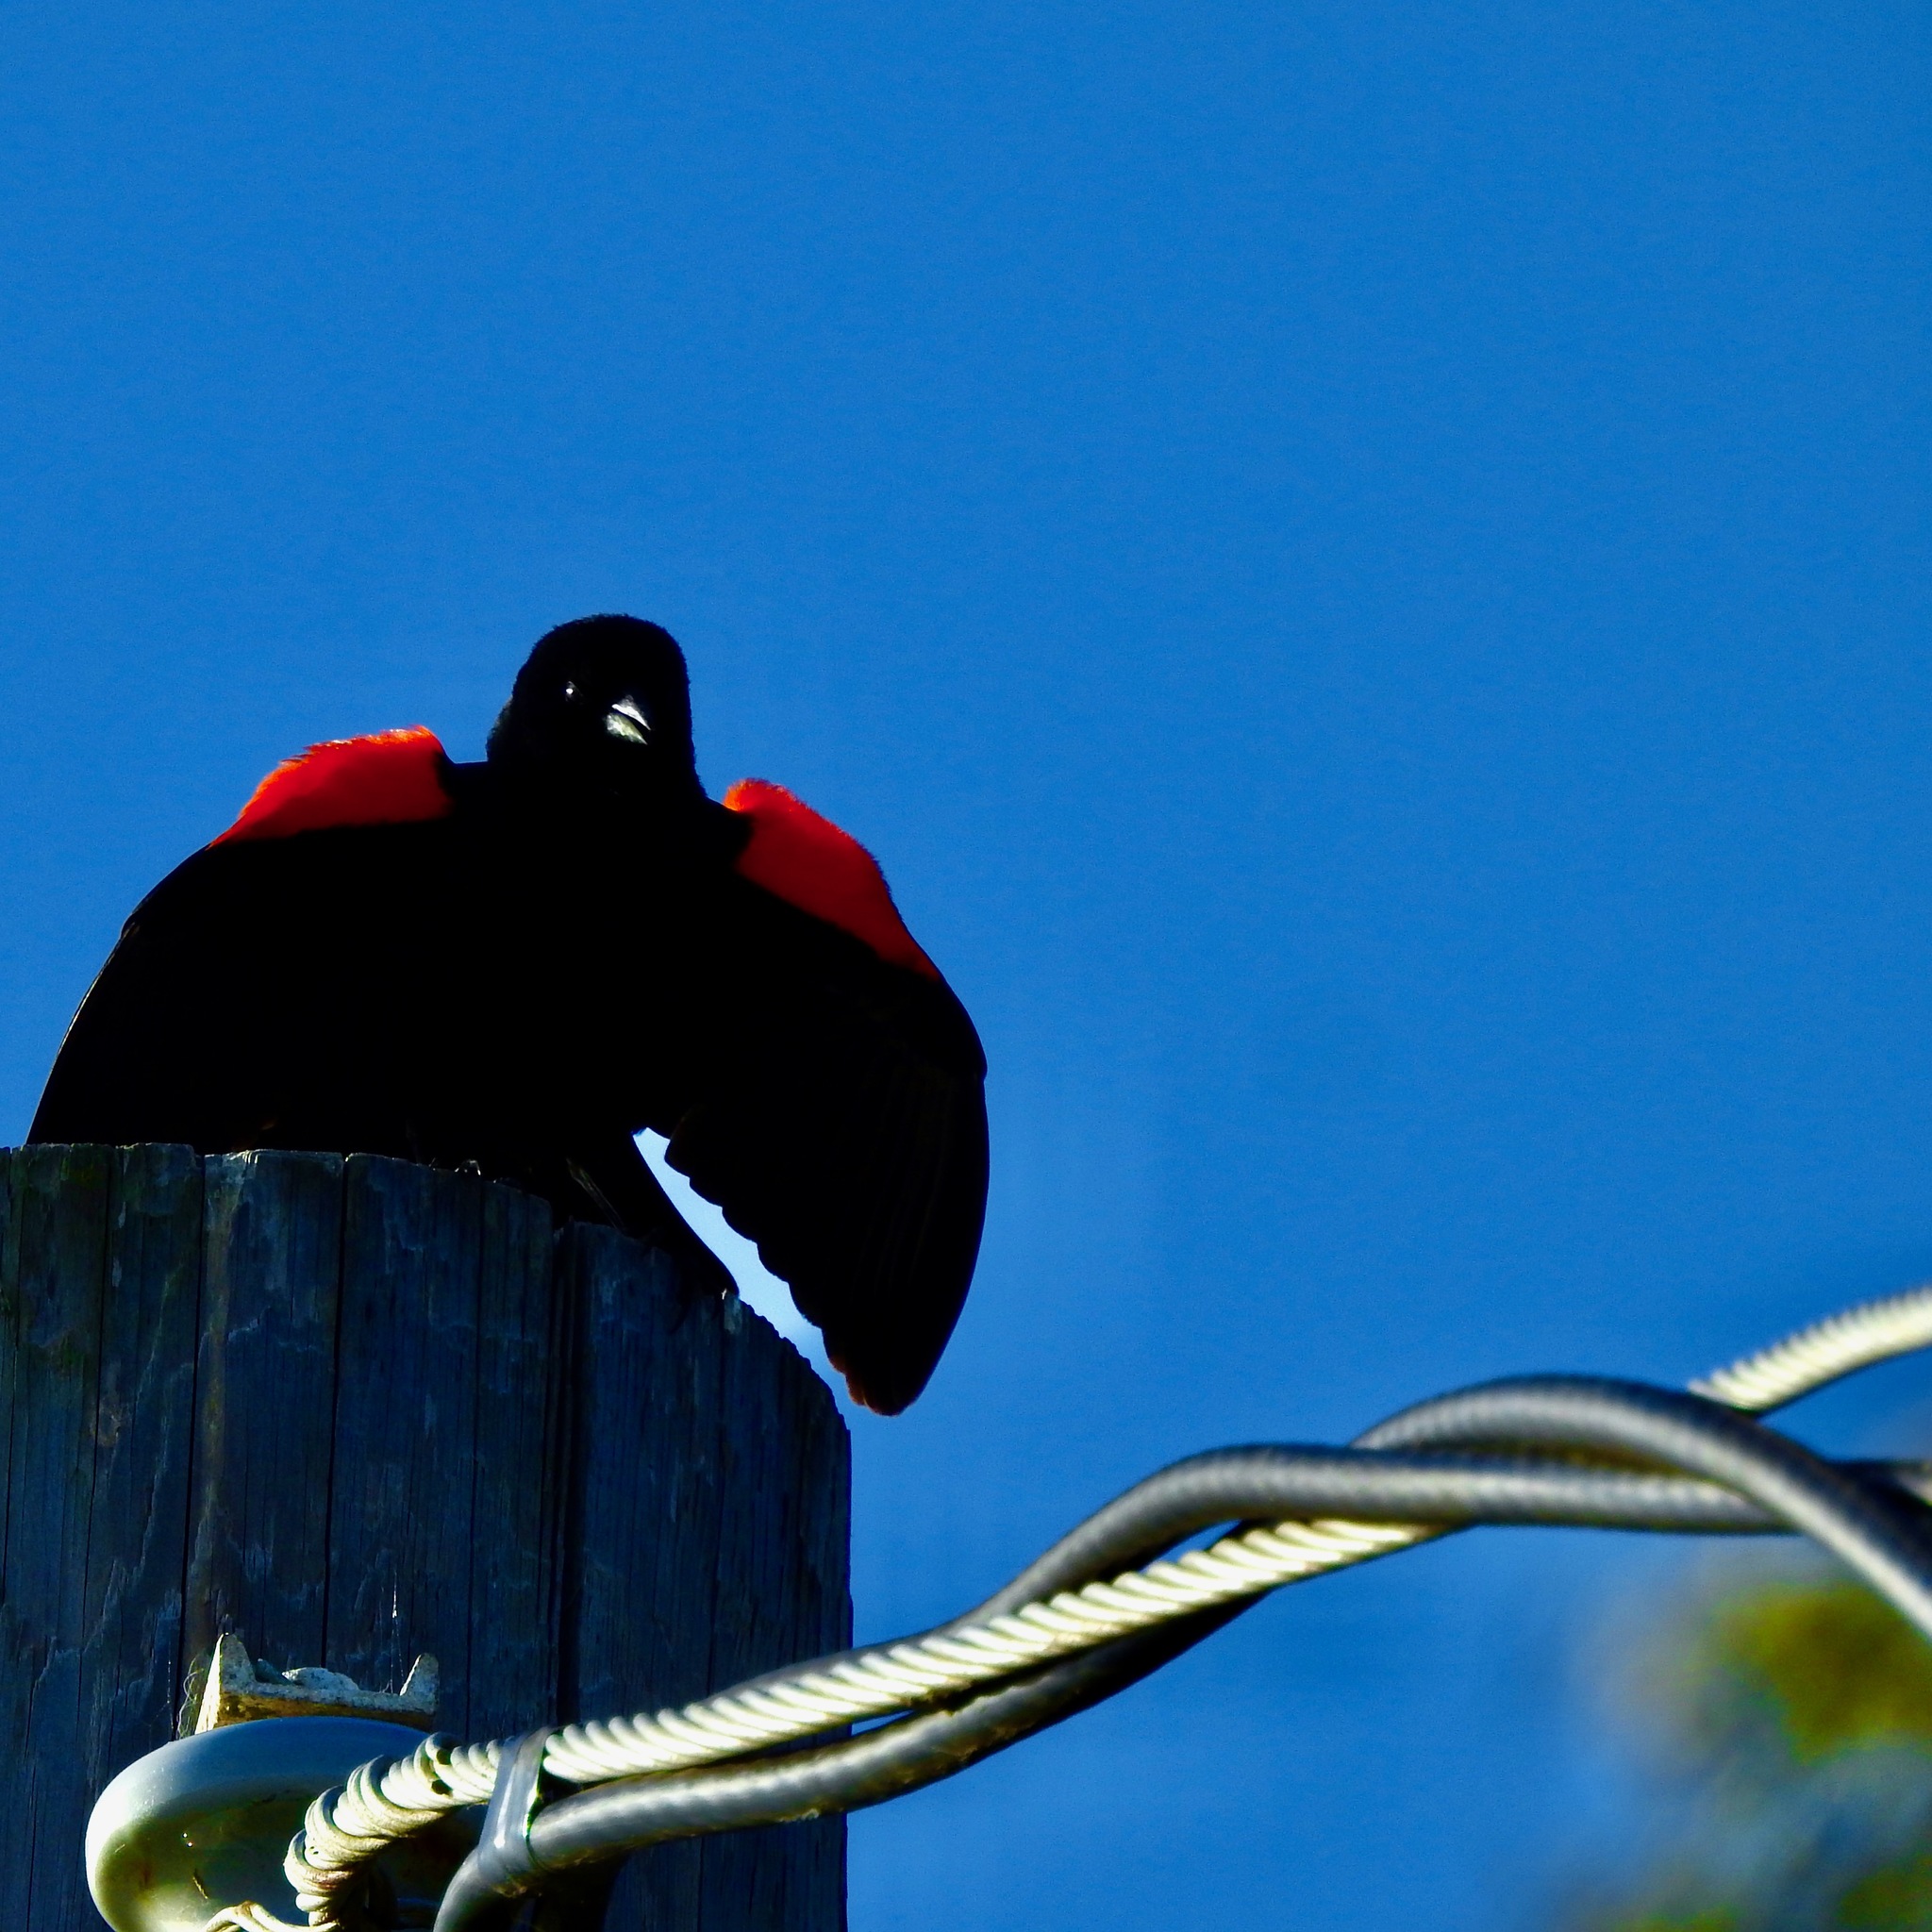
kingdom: Animalia
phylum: Chordata
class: Aves
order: Passeriformes
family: Icteridae
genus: Agelaius
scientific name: Agelaius phoeniceus
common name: Red-winged blackbird
